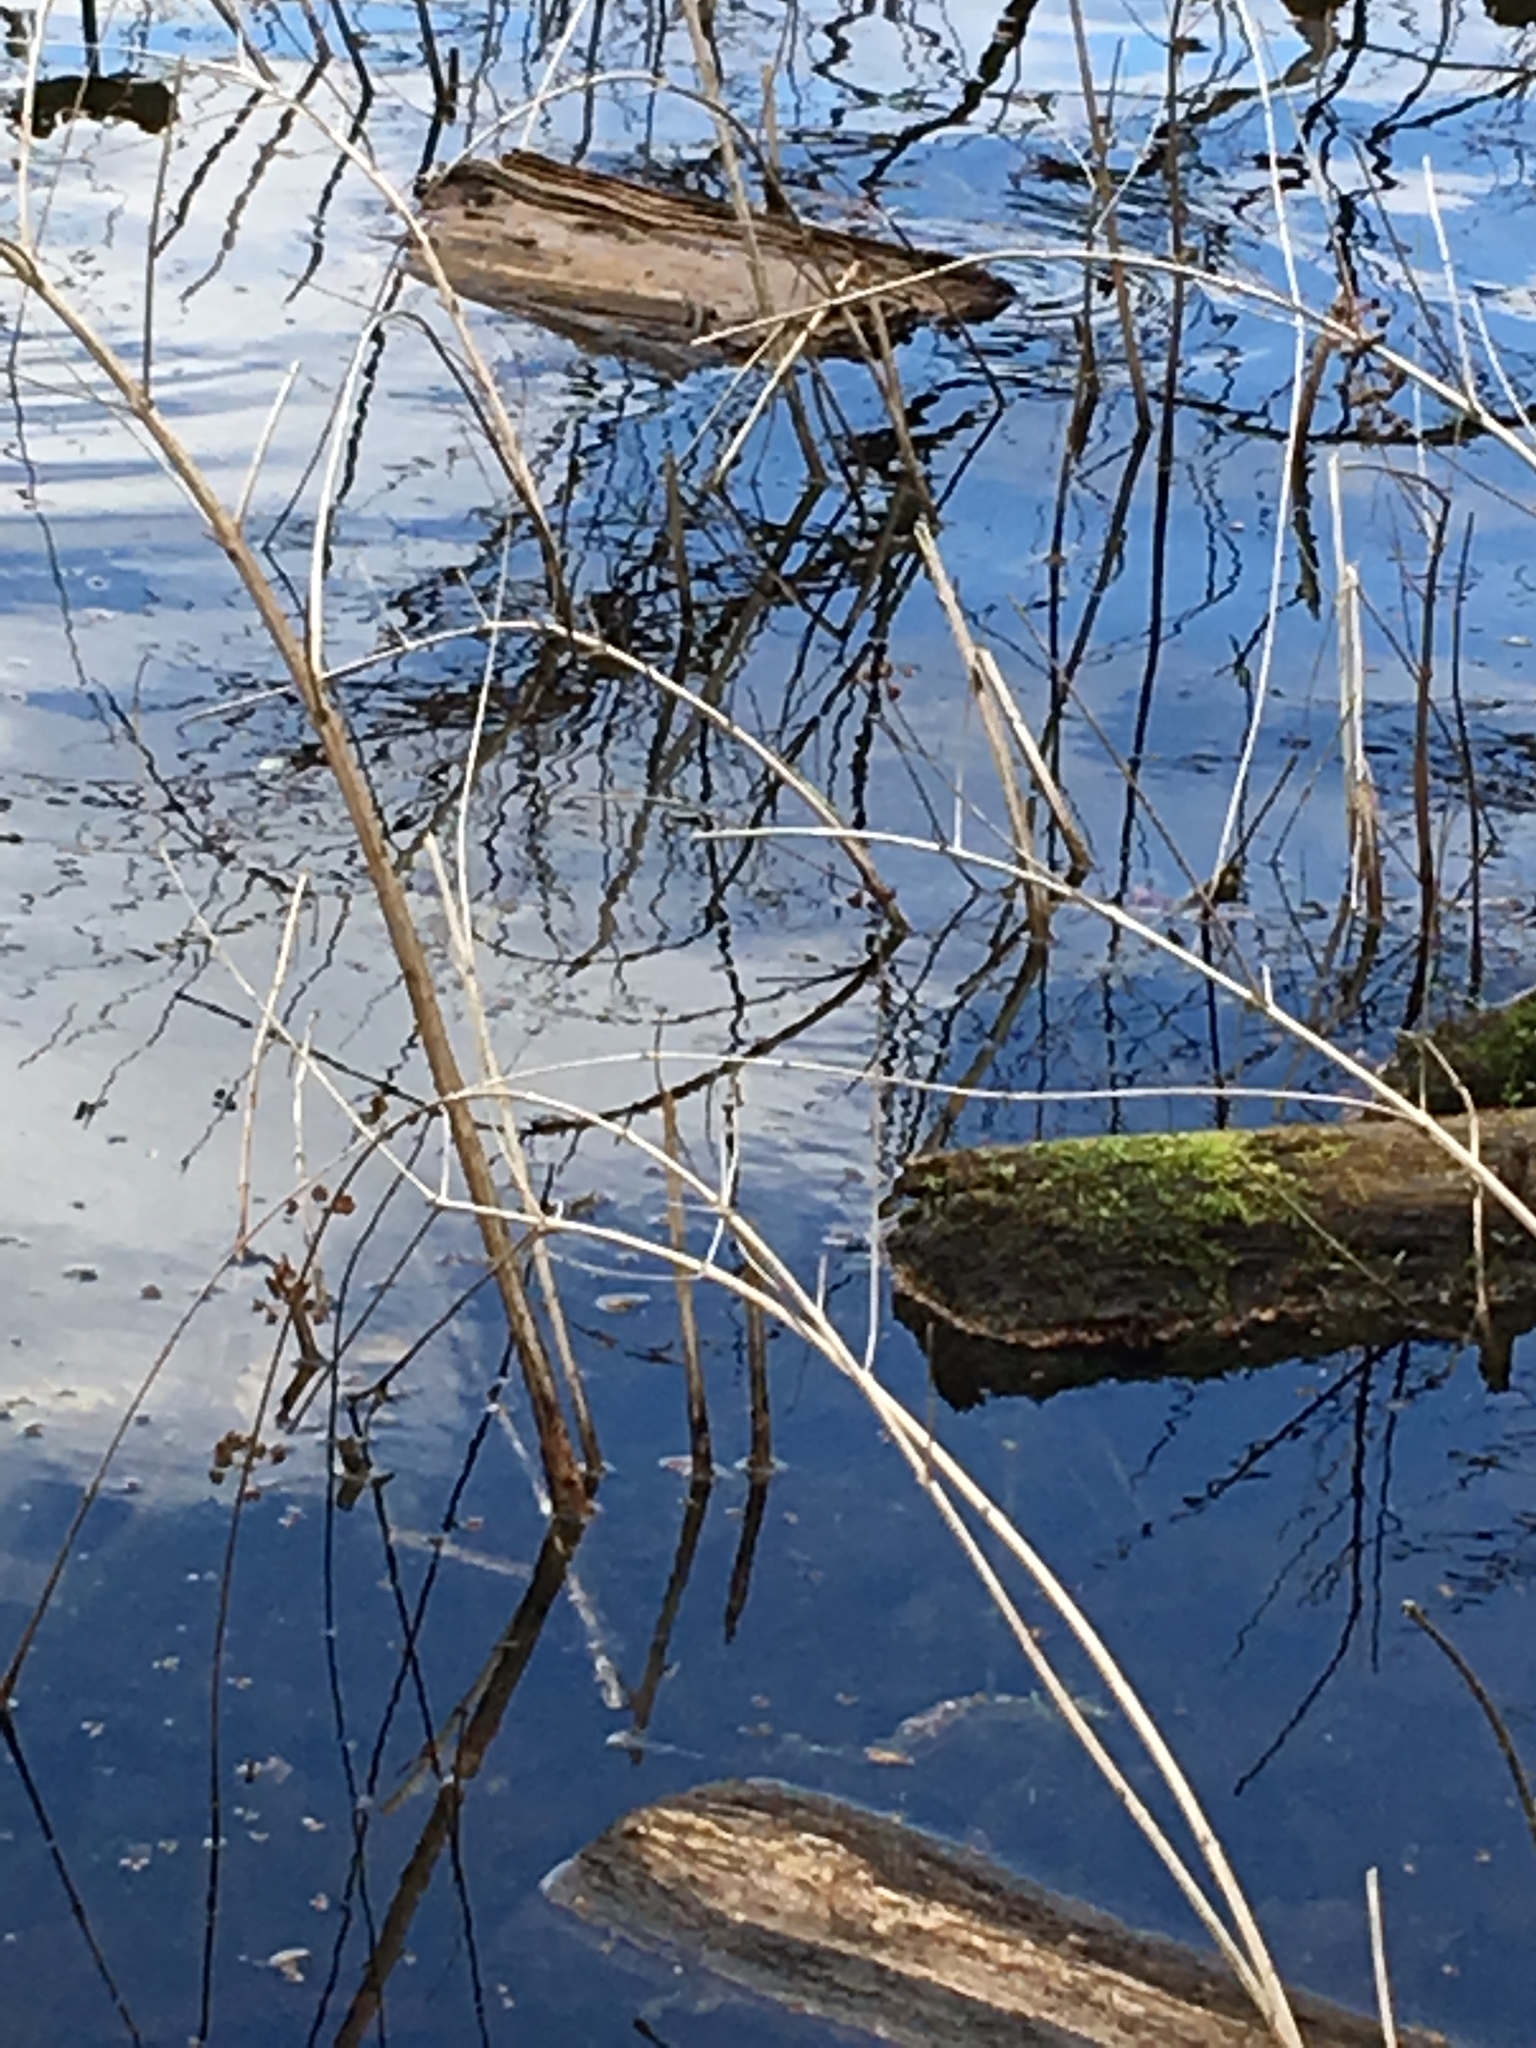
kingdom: Plantae
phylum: Tracheophyta
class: Magnoliopsida
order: Myrtales
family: Lythraceae
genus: Decodon
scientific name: Decodon verticillatus
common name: Hairy swamp loosestrife
